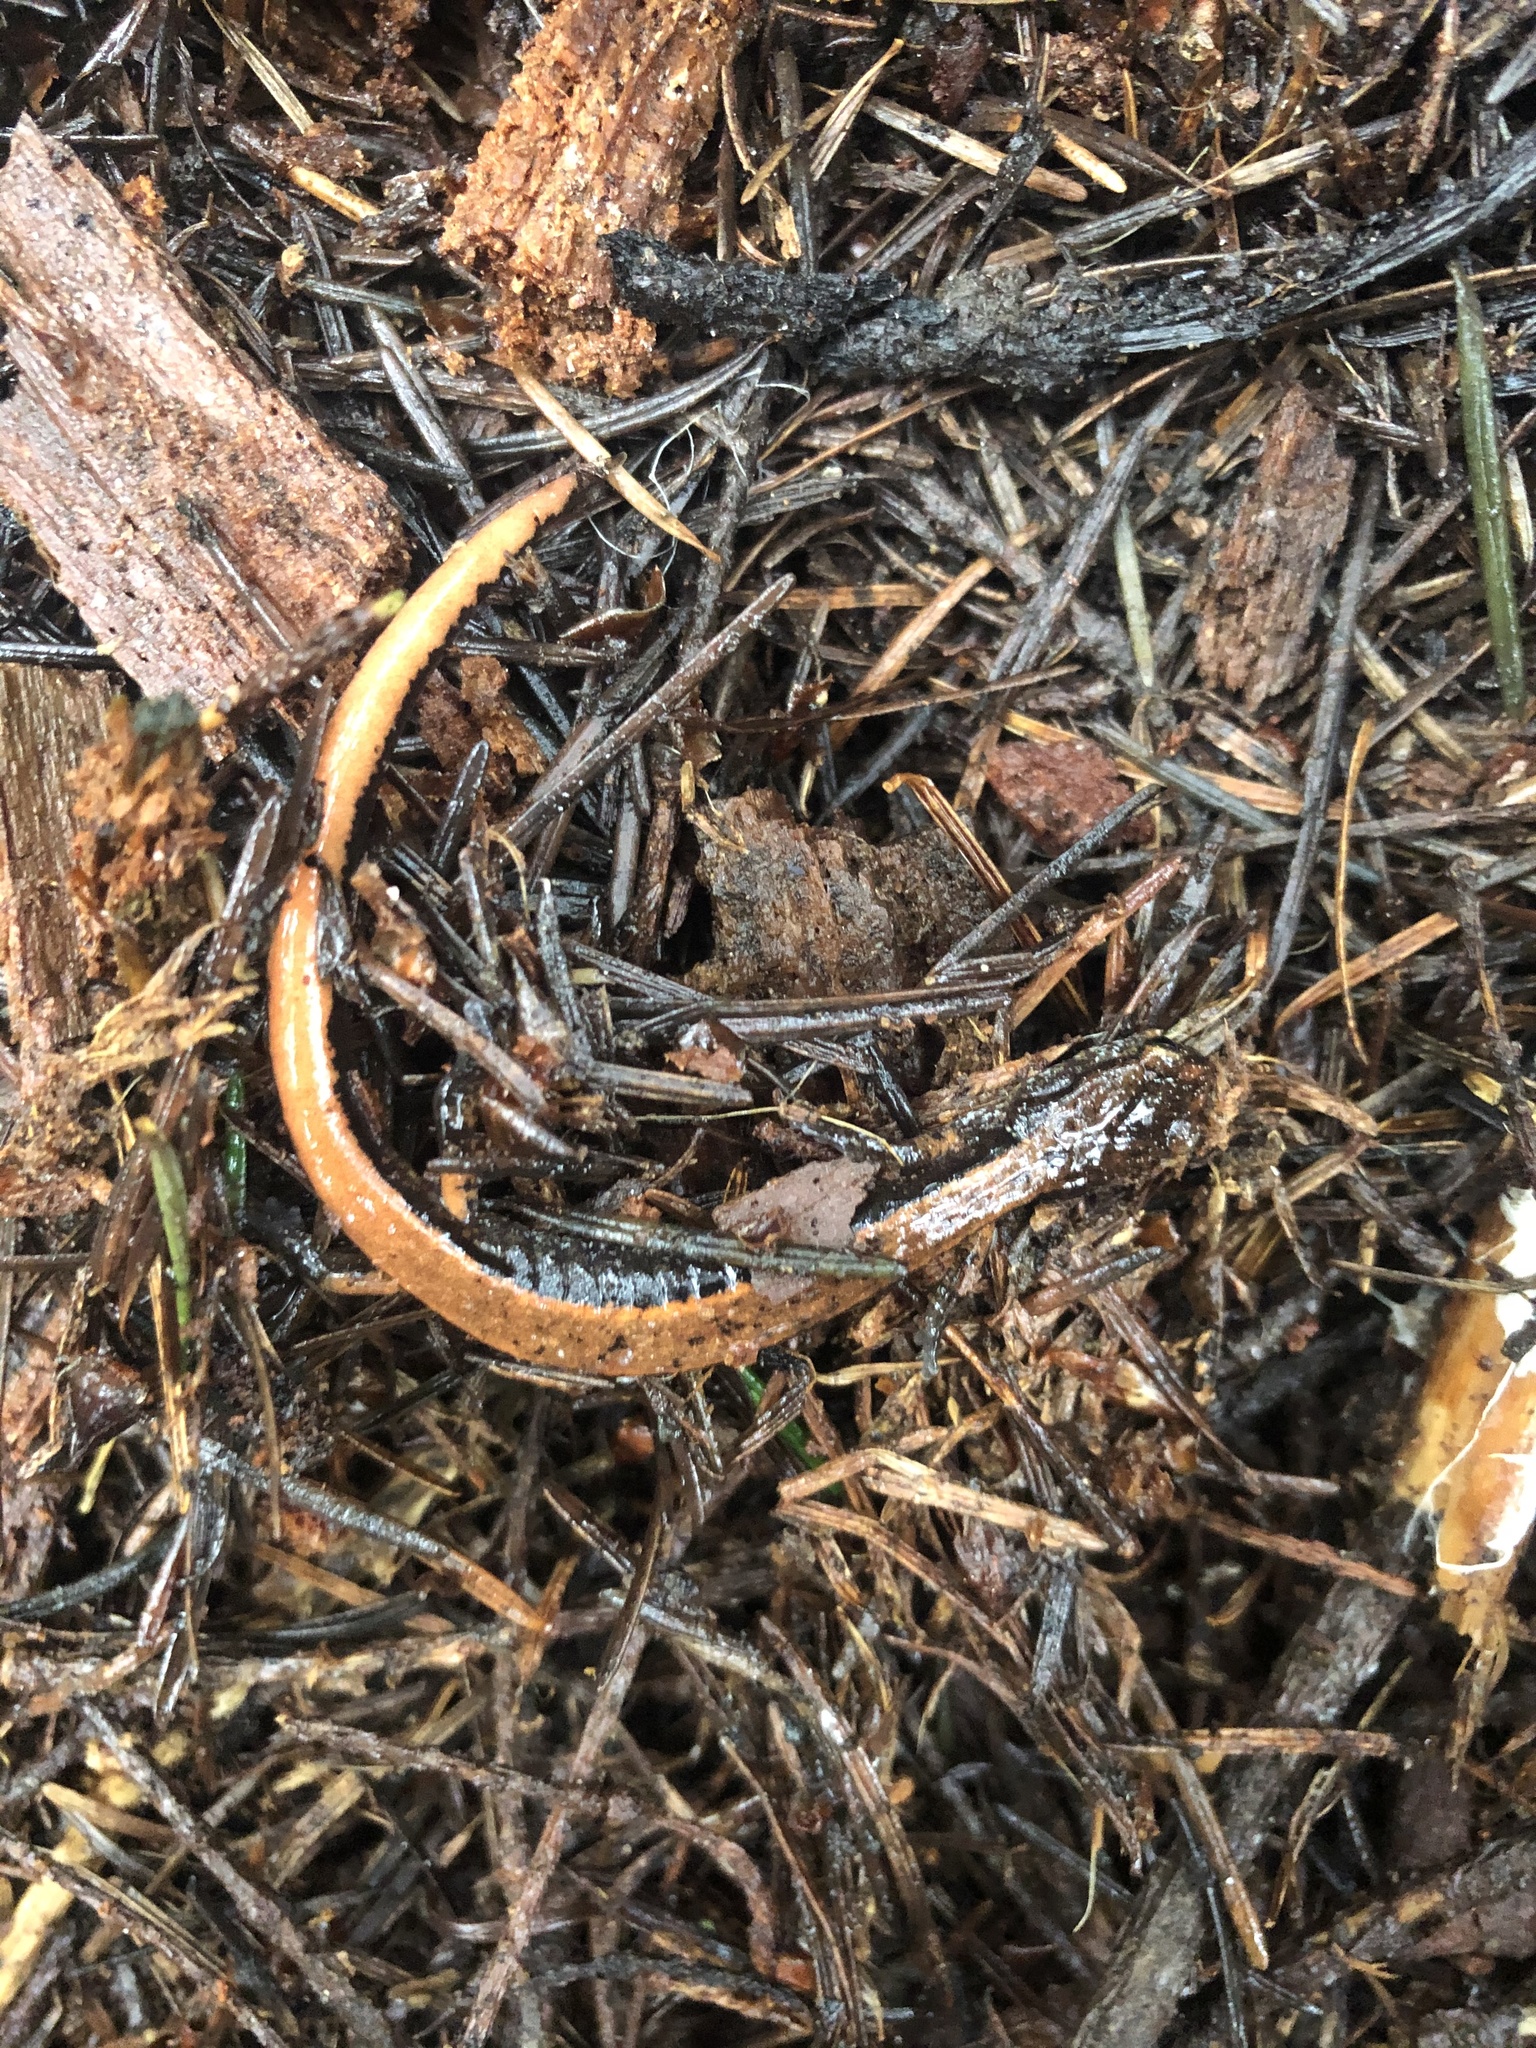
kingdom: Animalia
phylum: Chordata
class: Amphibia
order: Caudata
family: Plethodontidae
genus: Plethodon
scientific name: Plethodon vehiculum
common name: Western red-backed salamander
